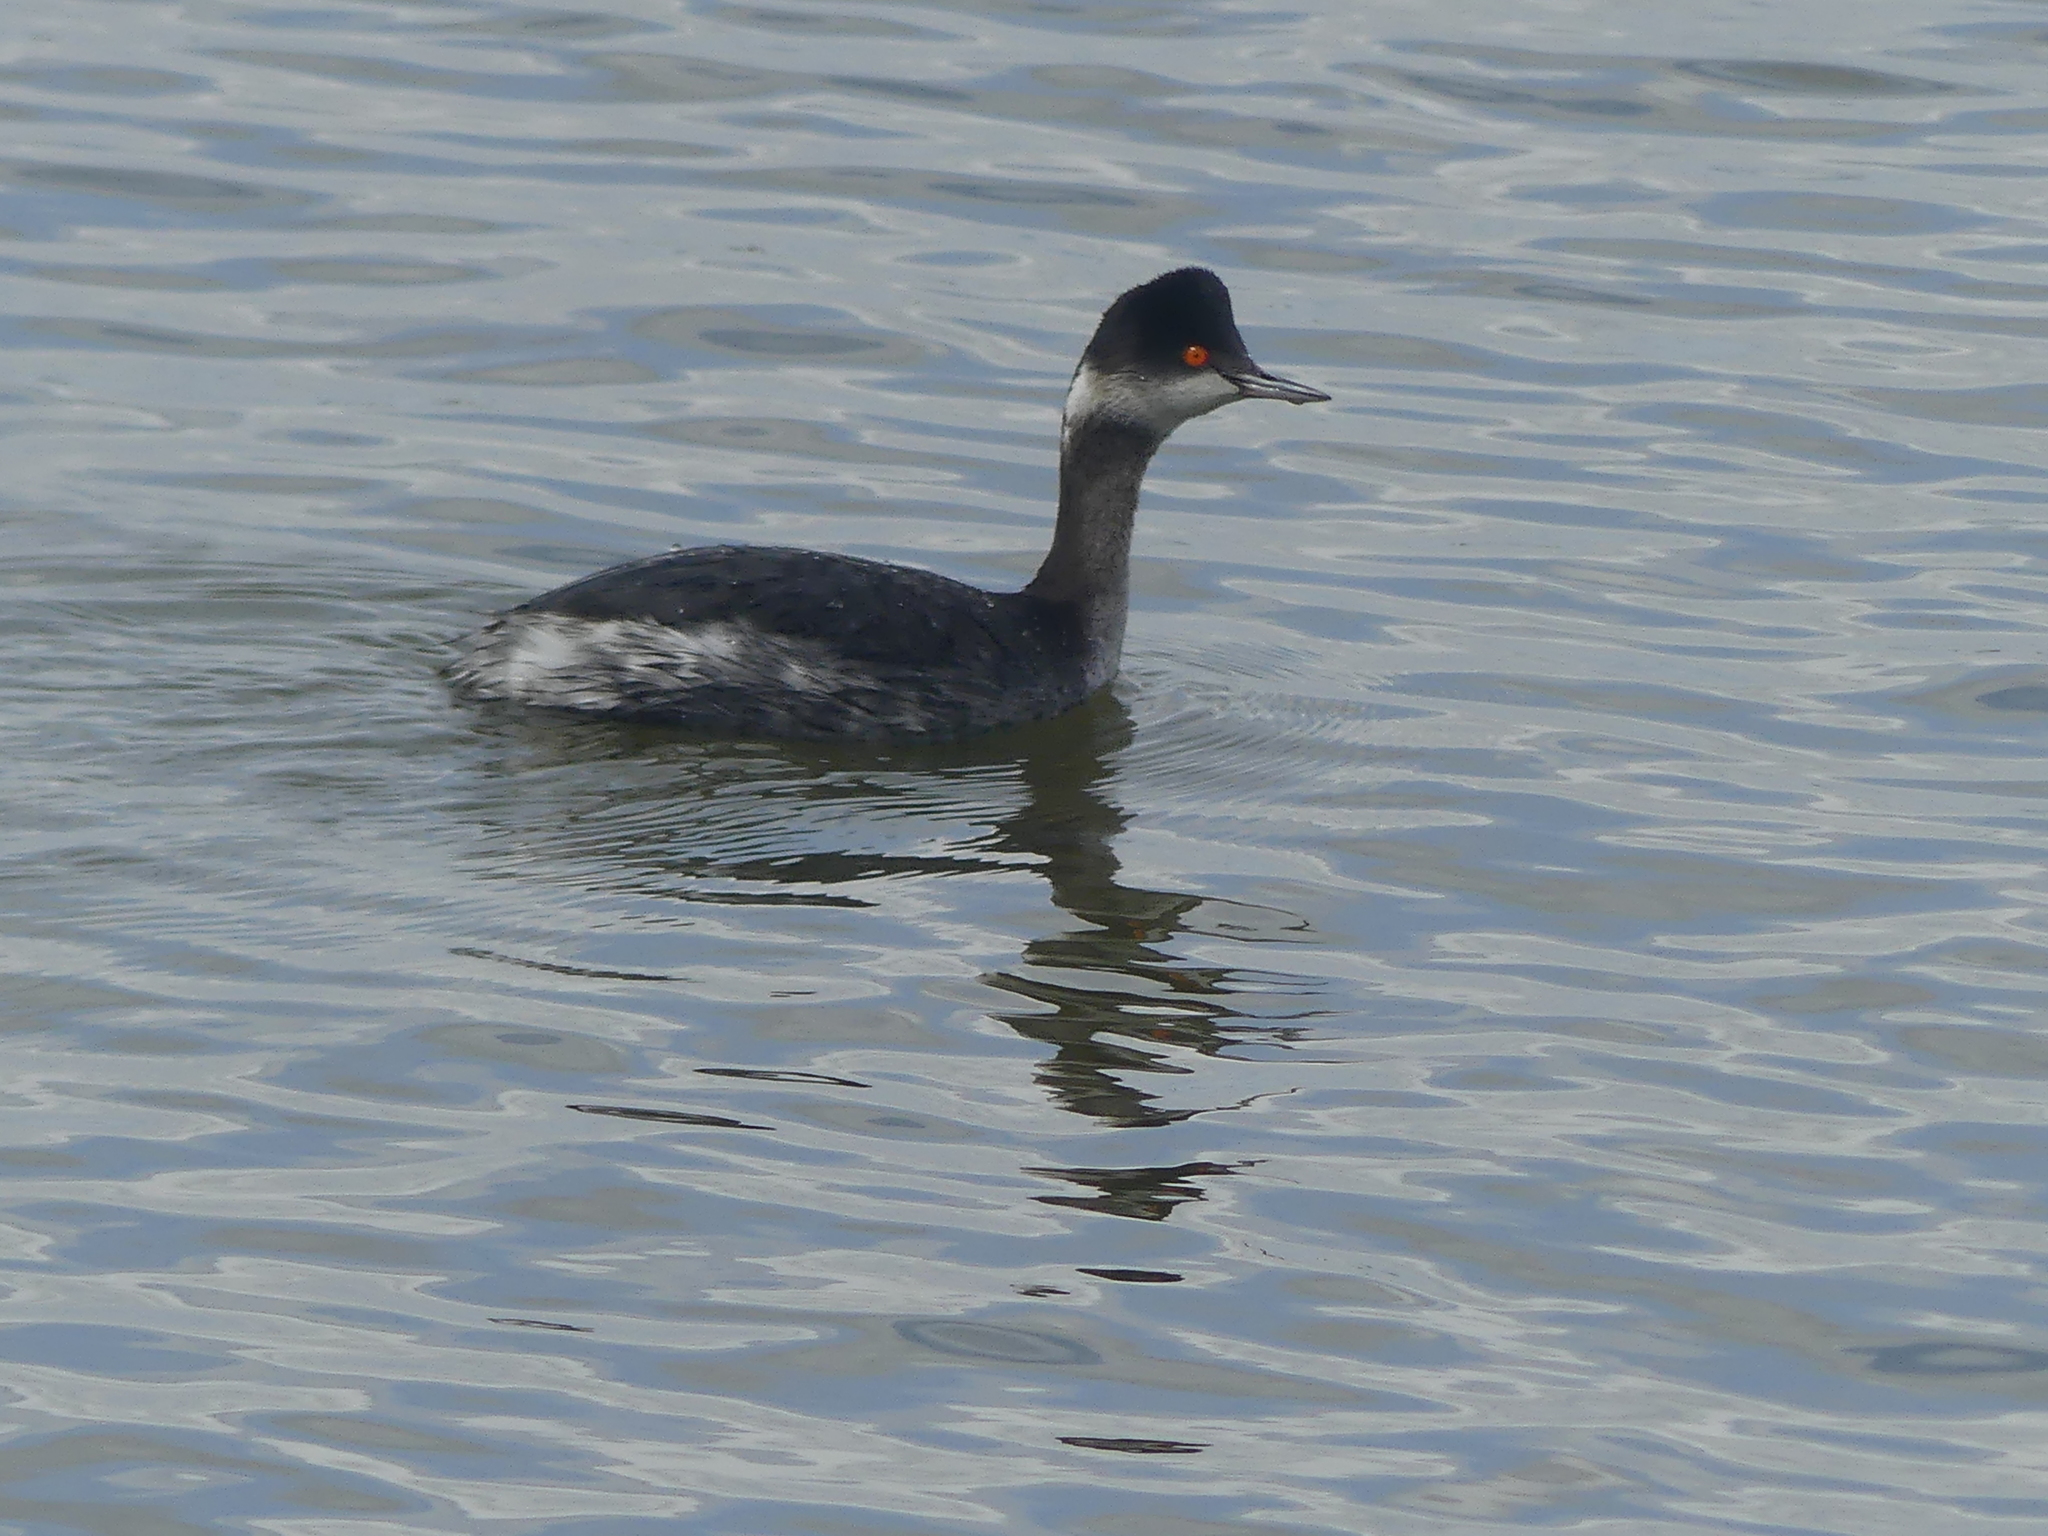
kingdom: Animalia
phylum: Chordata
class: Aves
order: Podicipediformes
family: Podicipedidae
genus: Podiceps
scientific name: Podiceps nigricollis
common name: Black-necked grebe
